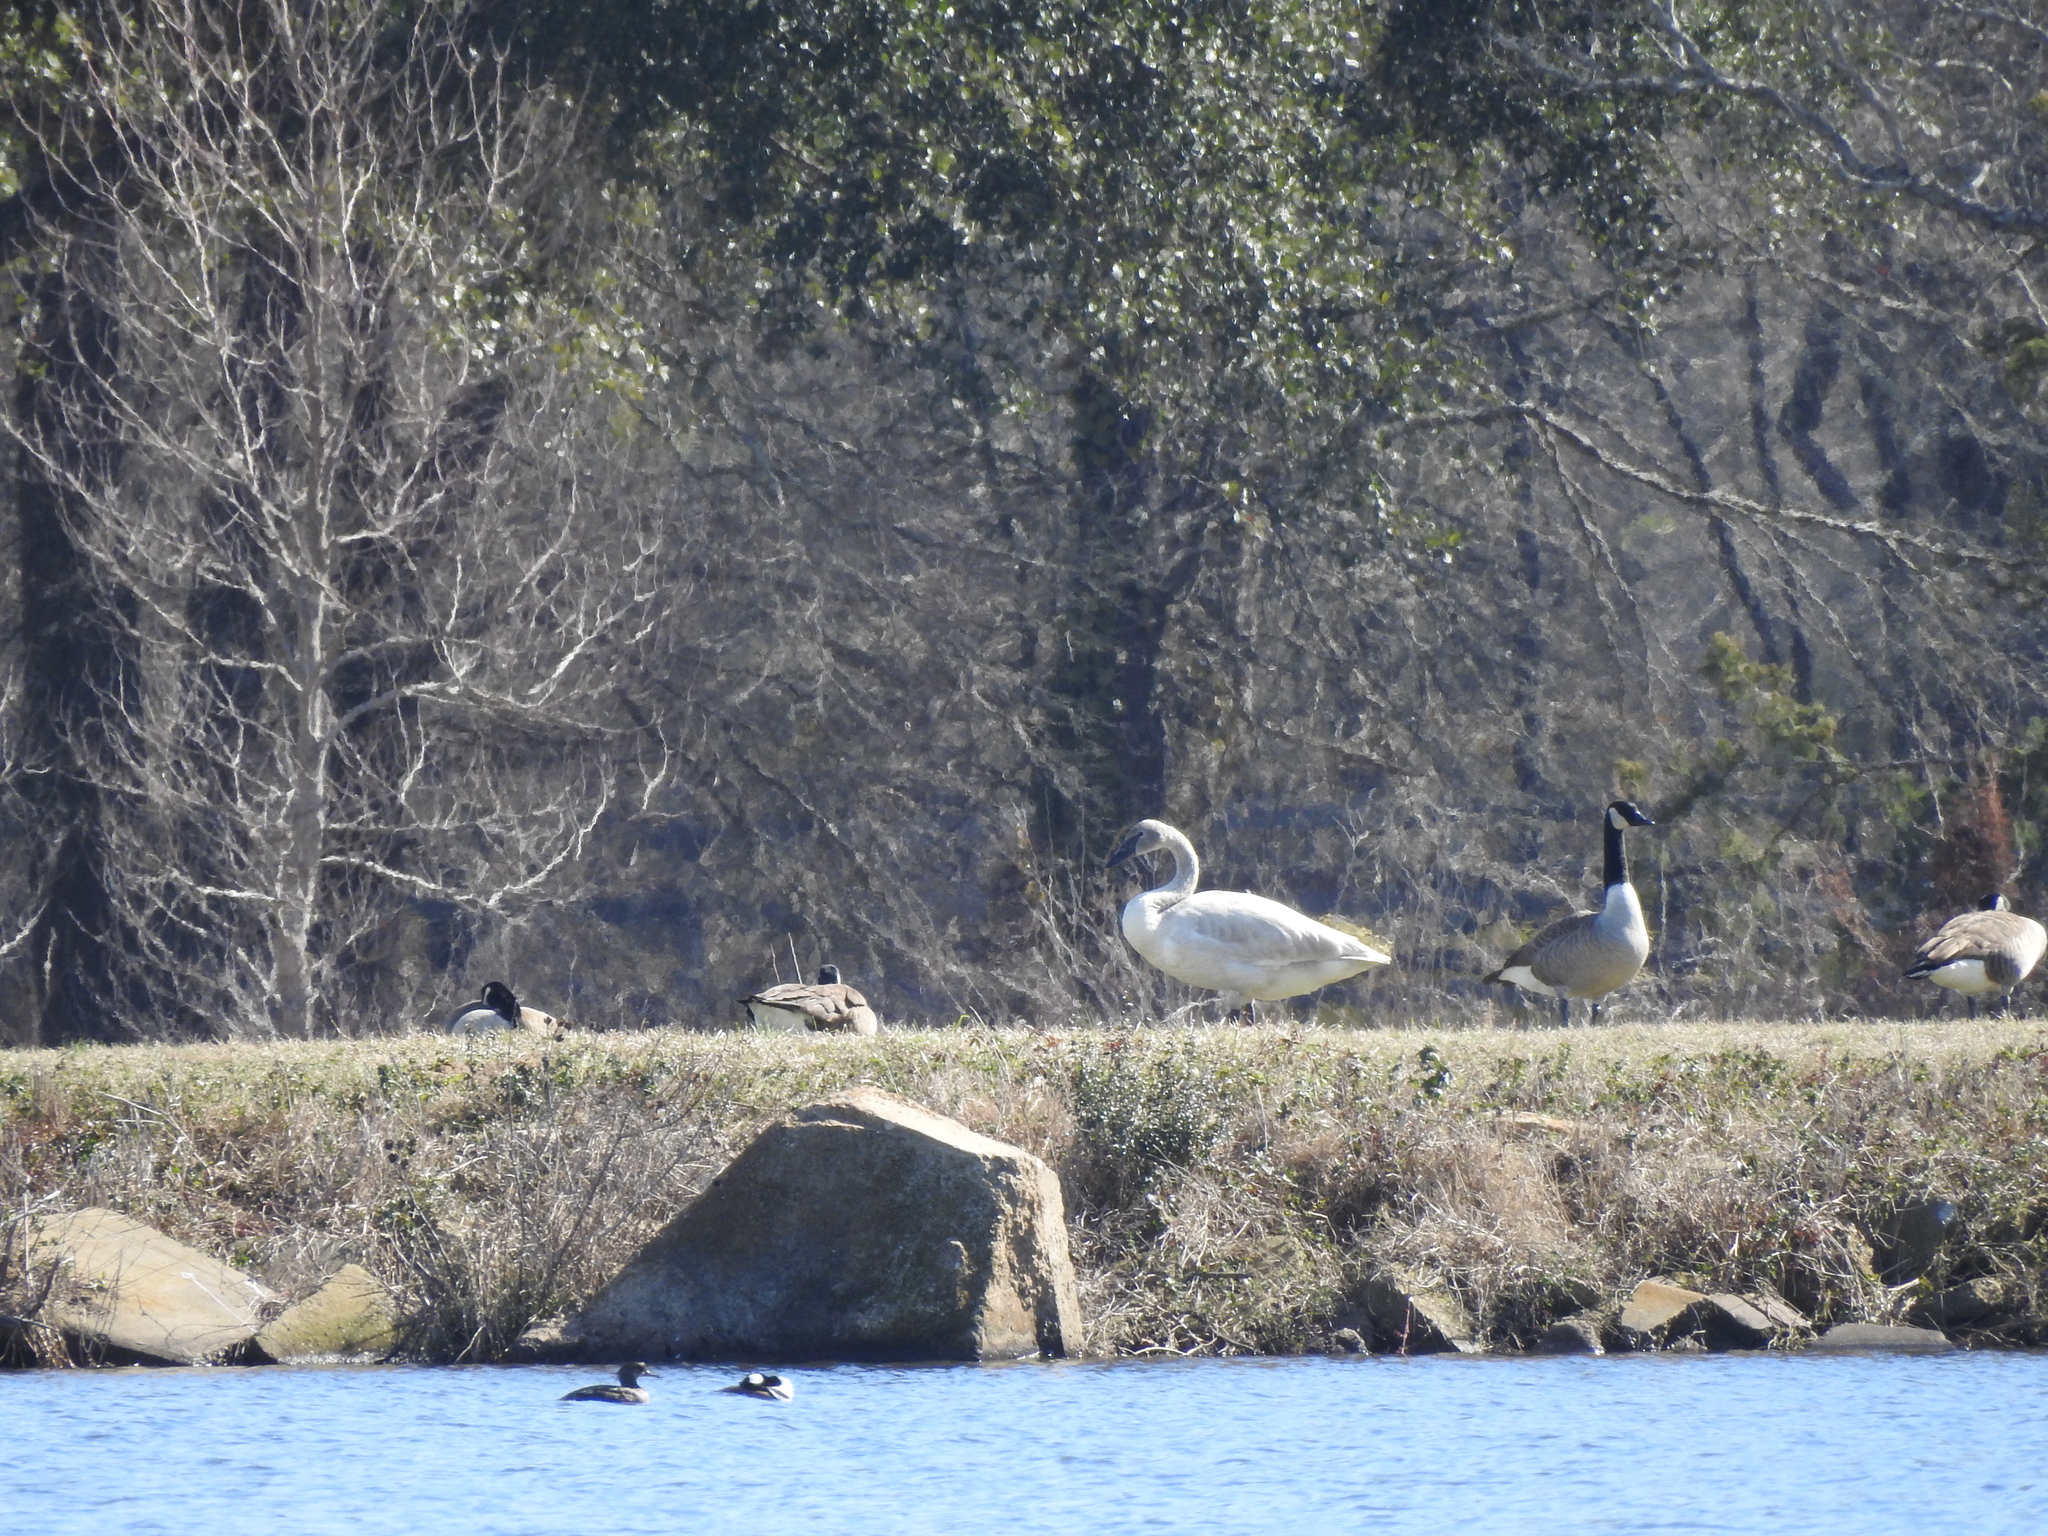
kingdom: Animalia
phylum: Chordata
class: Aves
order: Anseriformes
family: Anatidae
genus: Cygnus
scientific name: Cygnus buccinator
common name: Trumpeter swan
